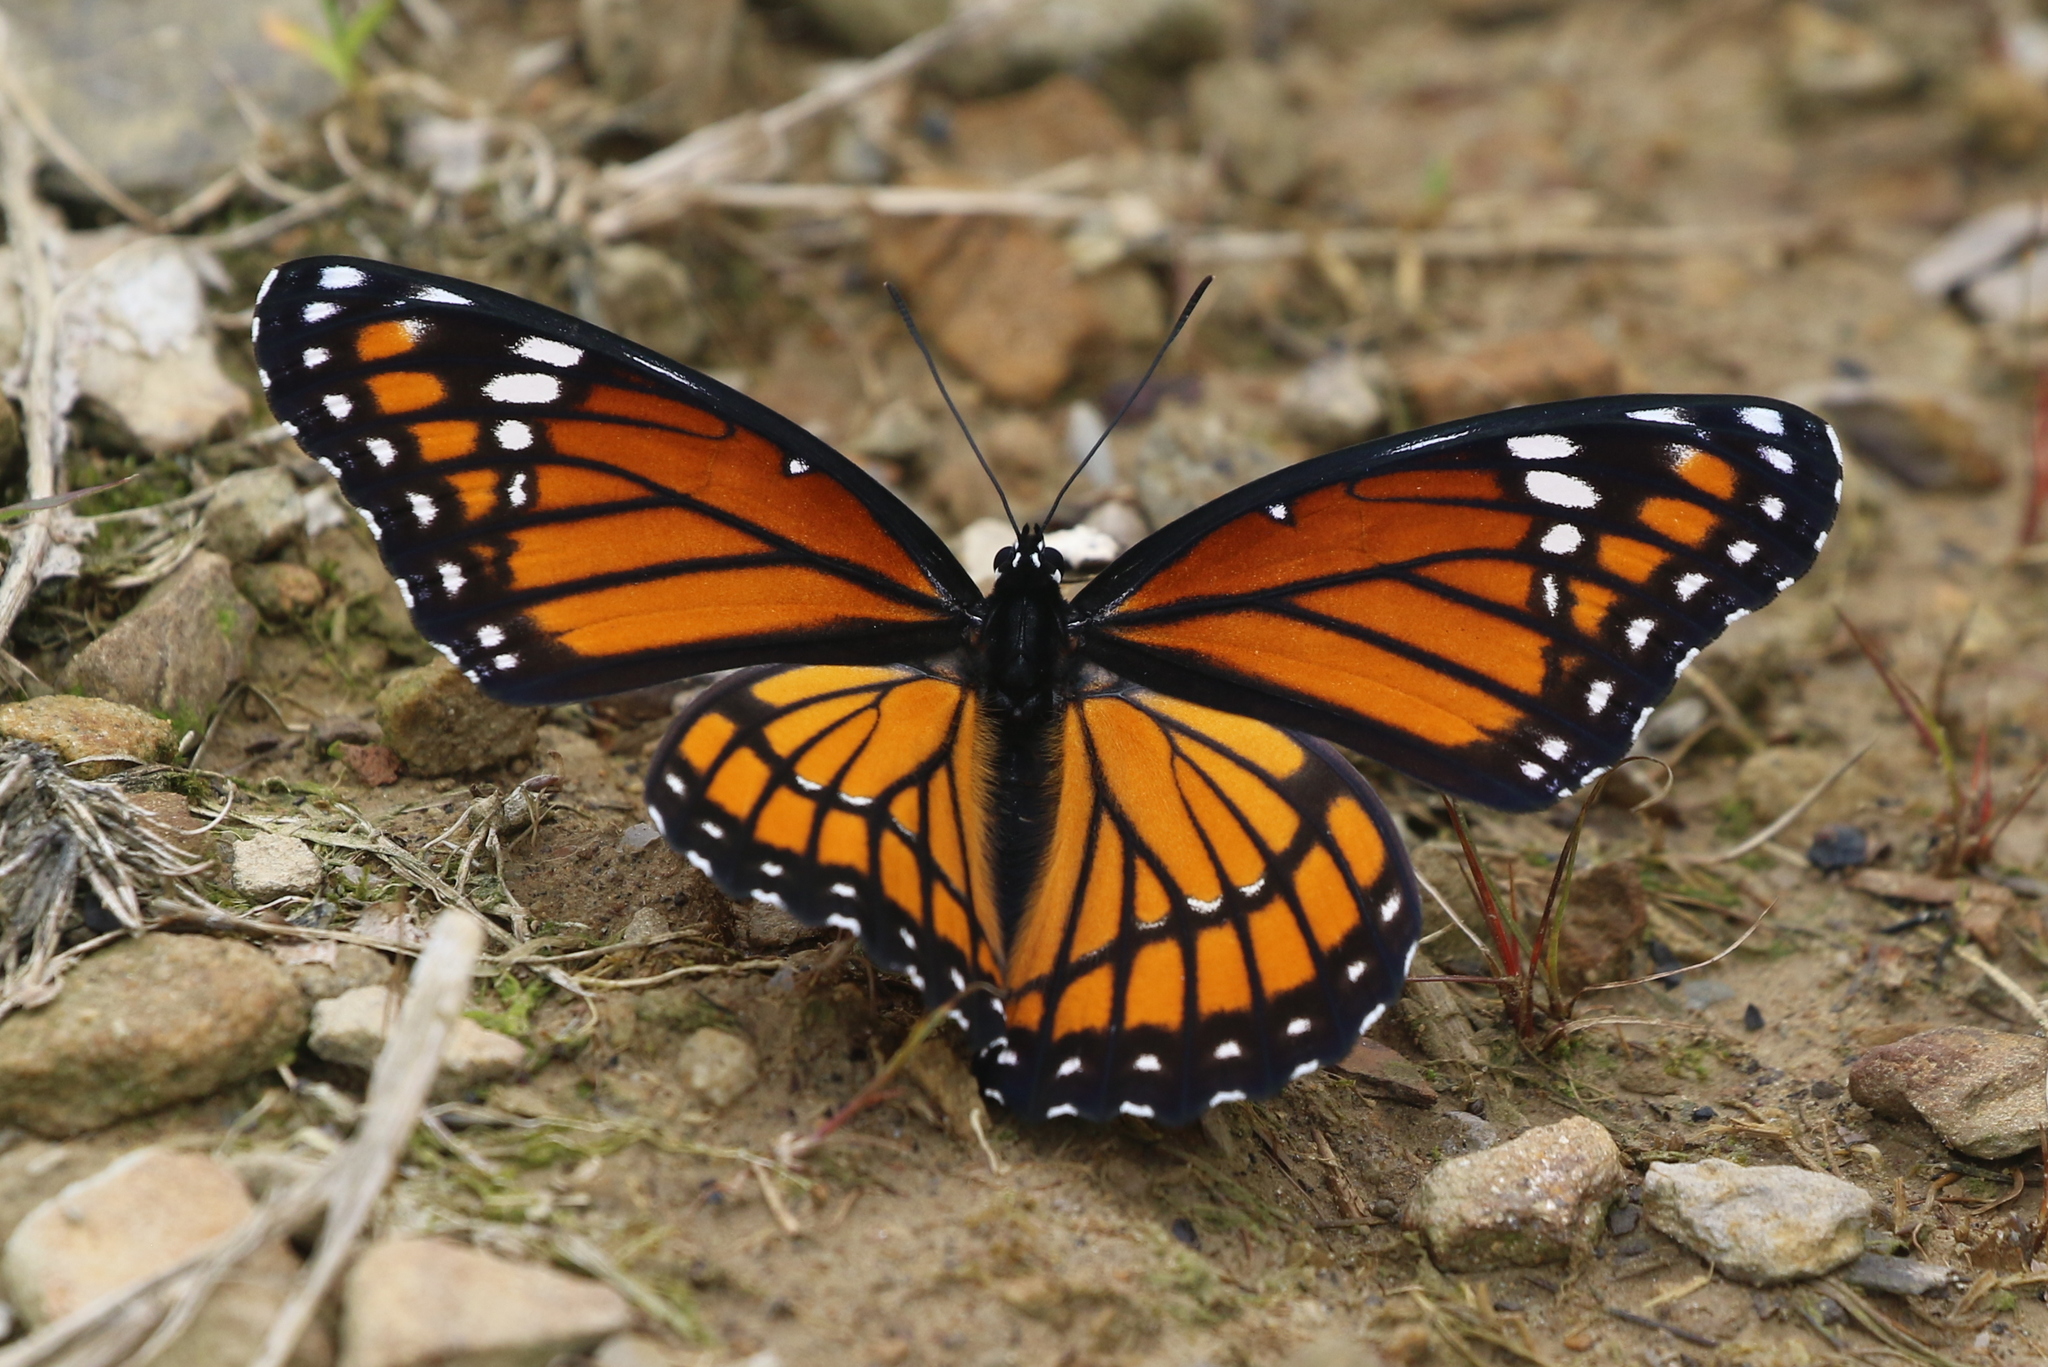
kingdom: Animalia
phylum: Arthropoda
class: Insecta
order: Lepidoptera
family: Nymphalidae
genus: Limenitis
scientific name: Limenitis archippus
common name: Viceroy
